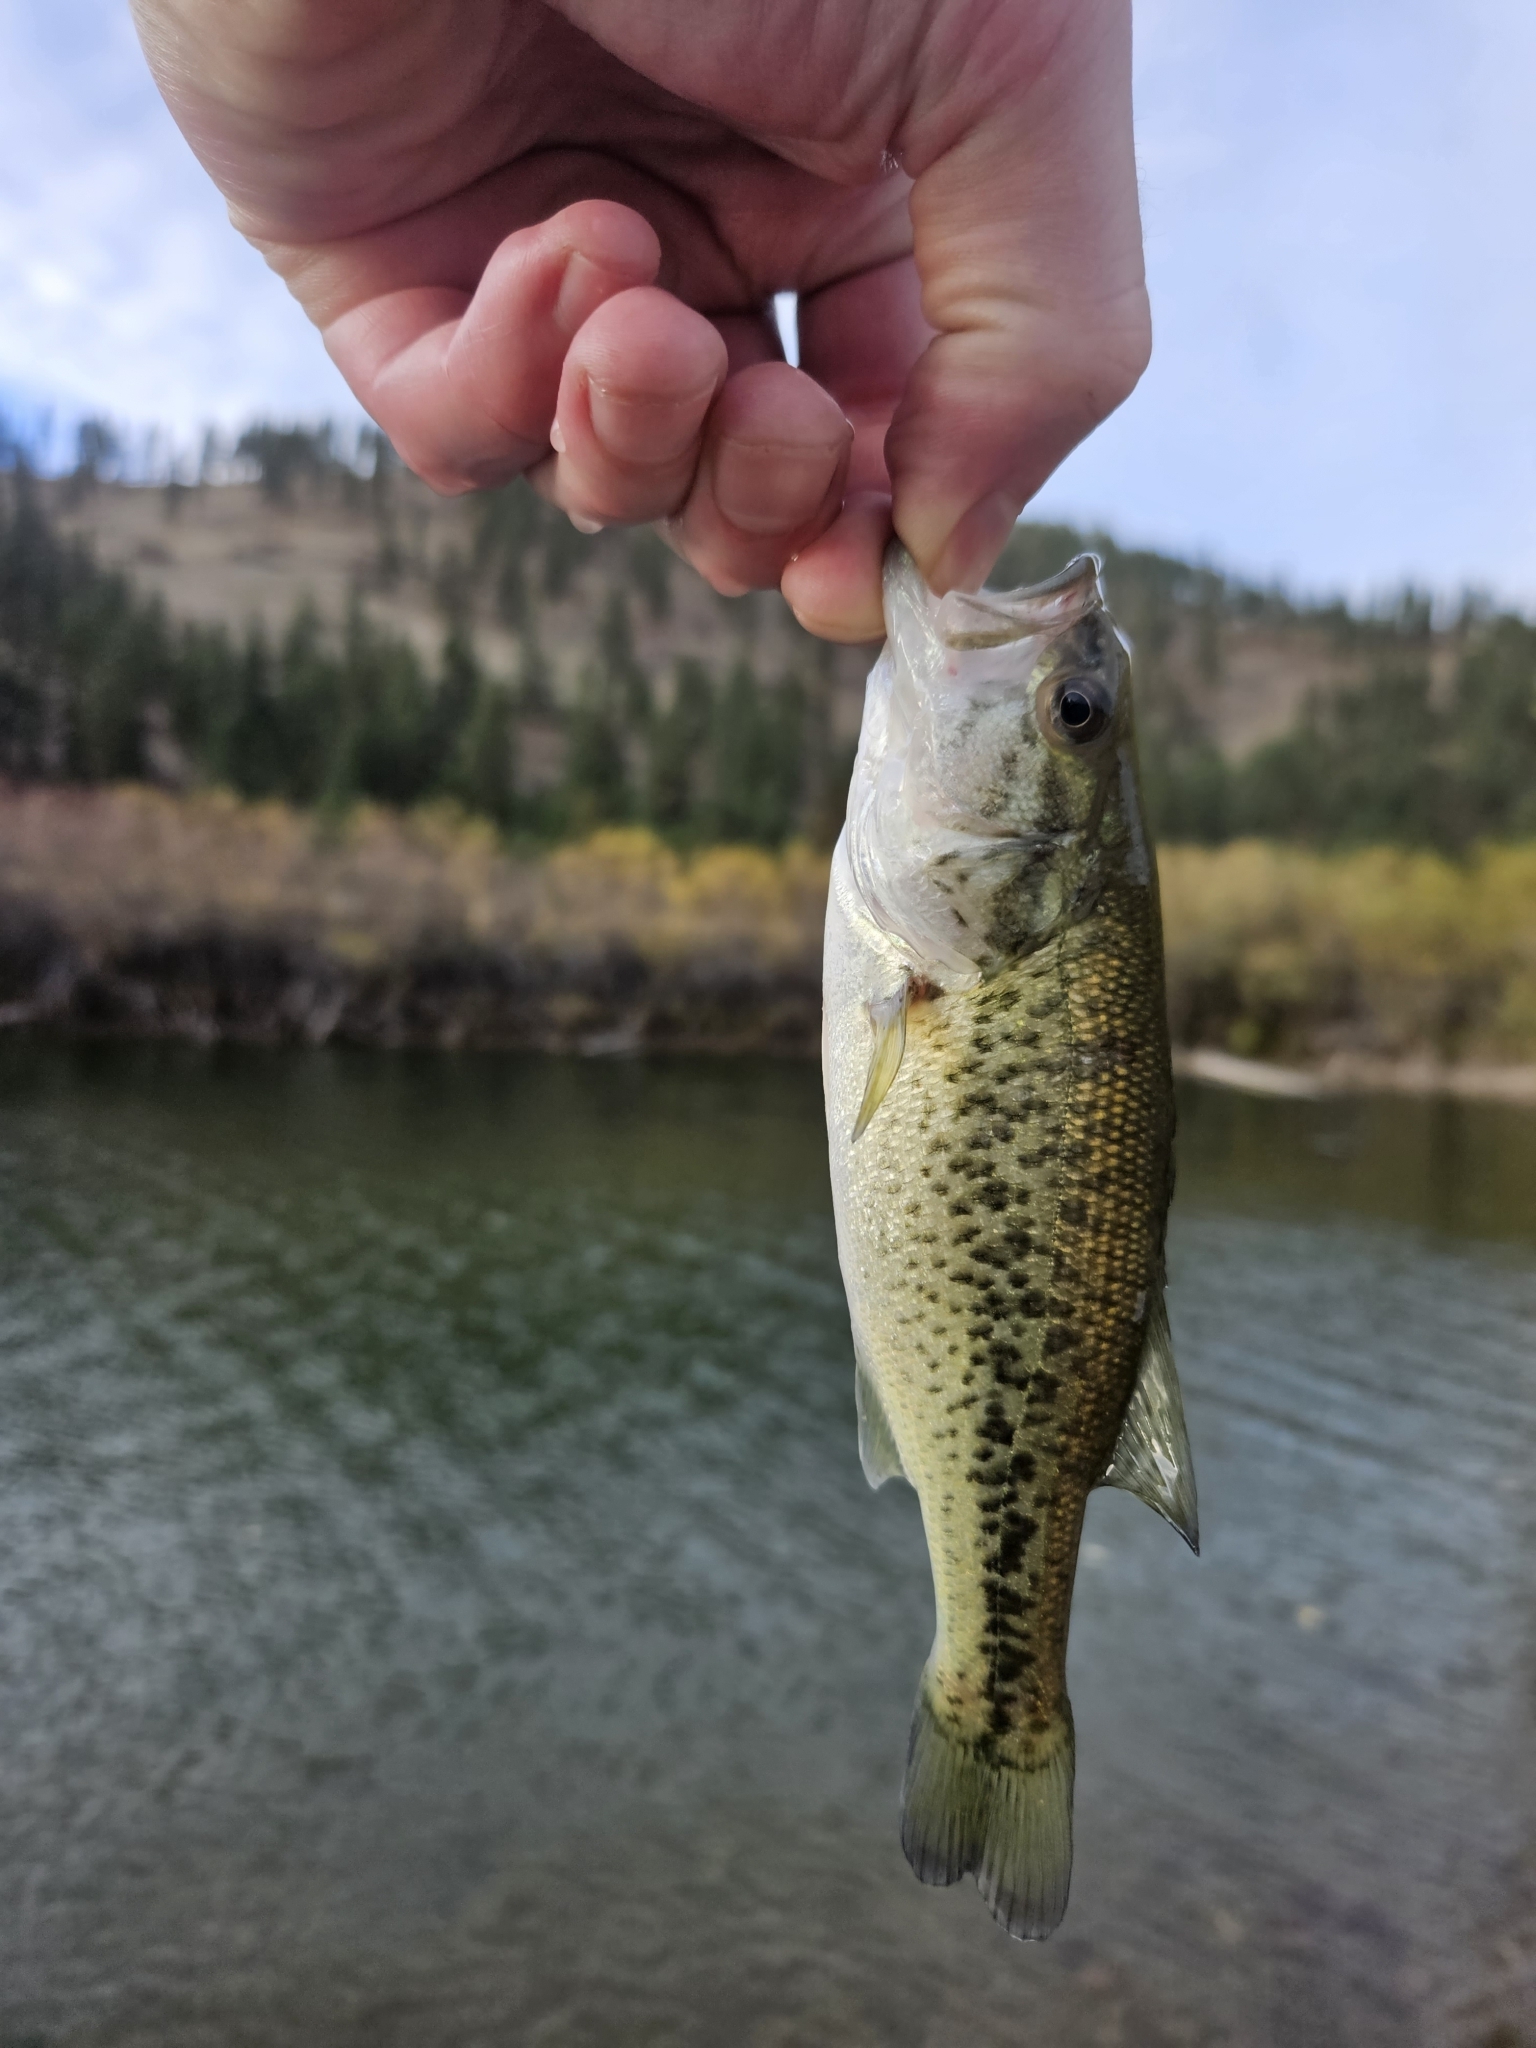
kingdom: Animalia
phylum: Chordata
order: Perciformes
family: Centrarchidae
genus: Micropterus
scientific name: Micropterus
